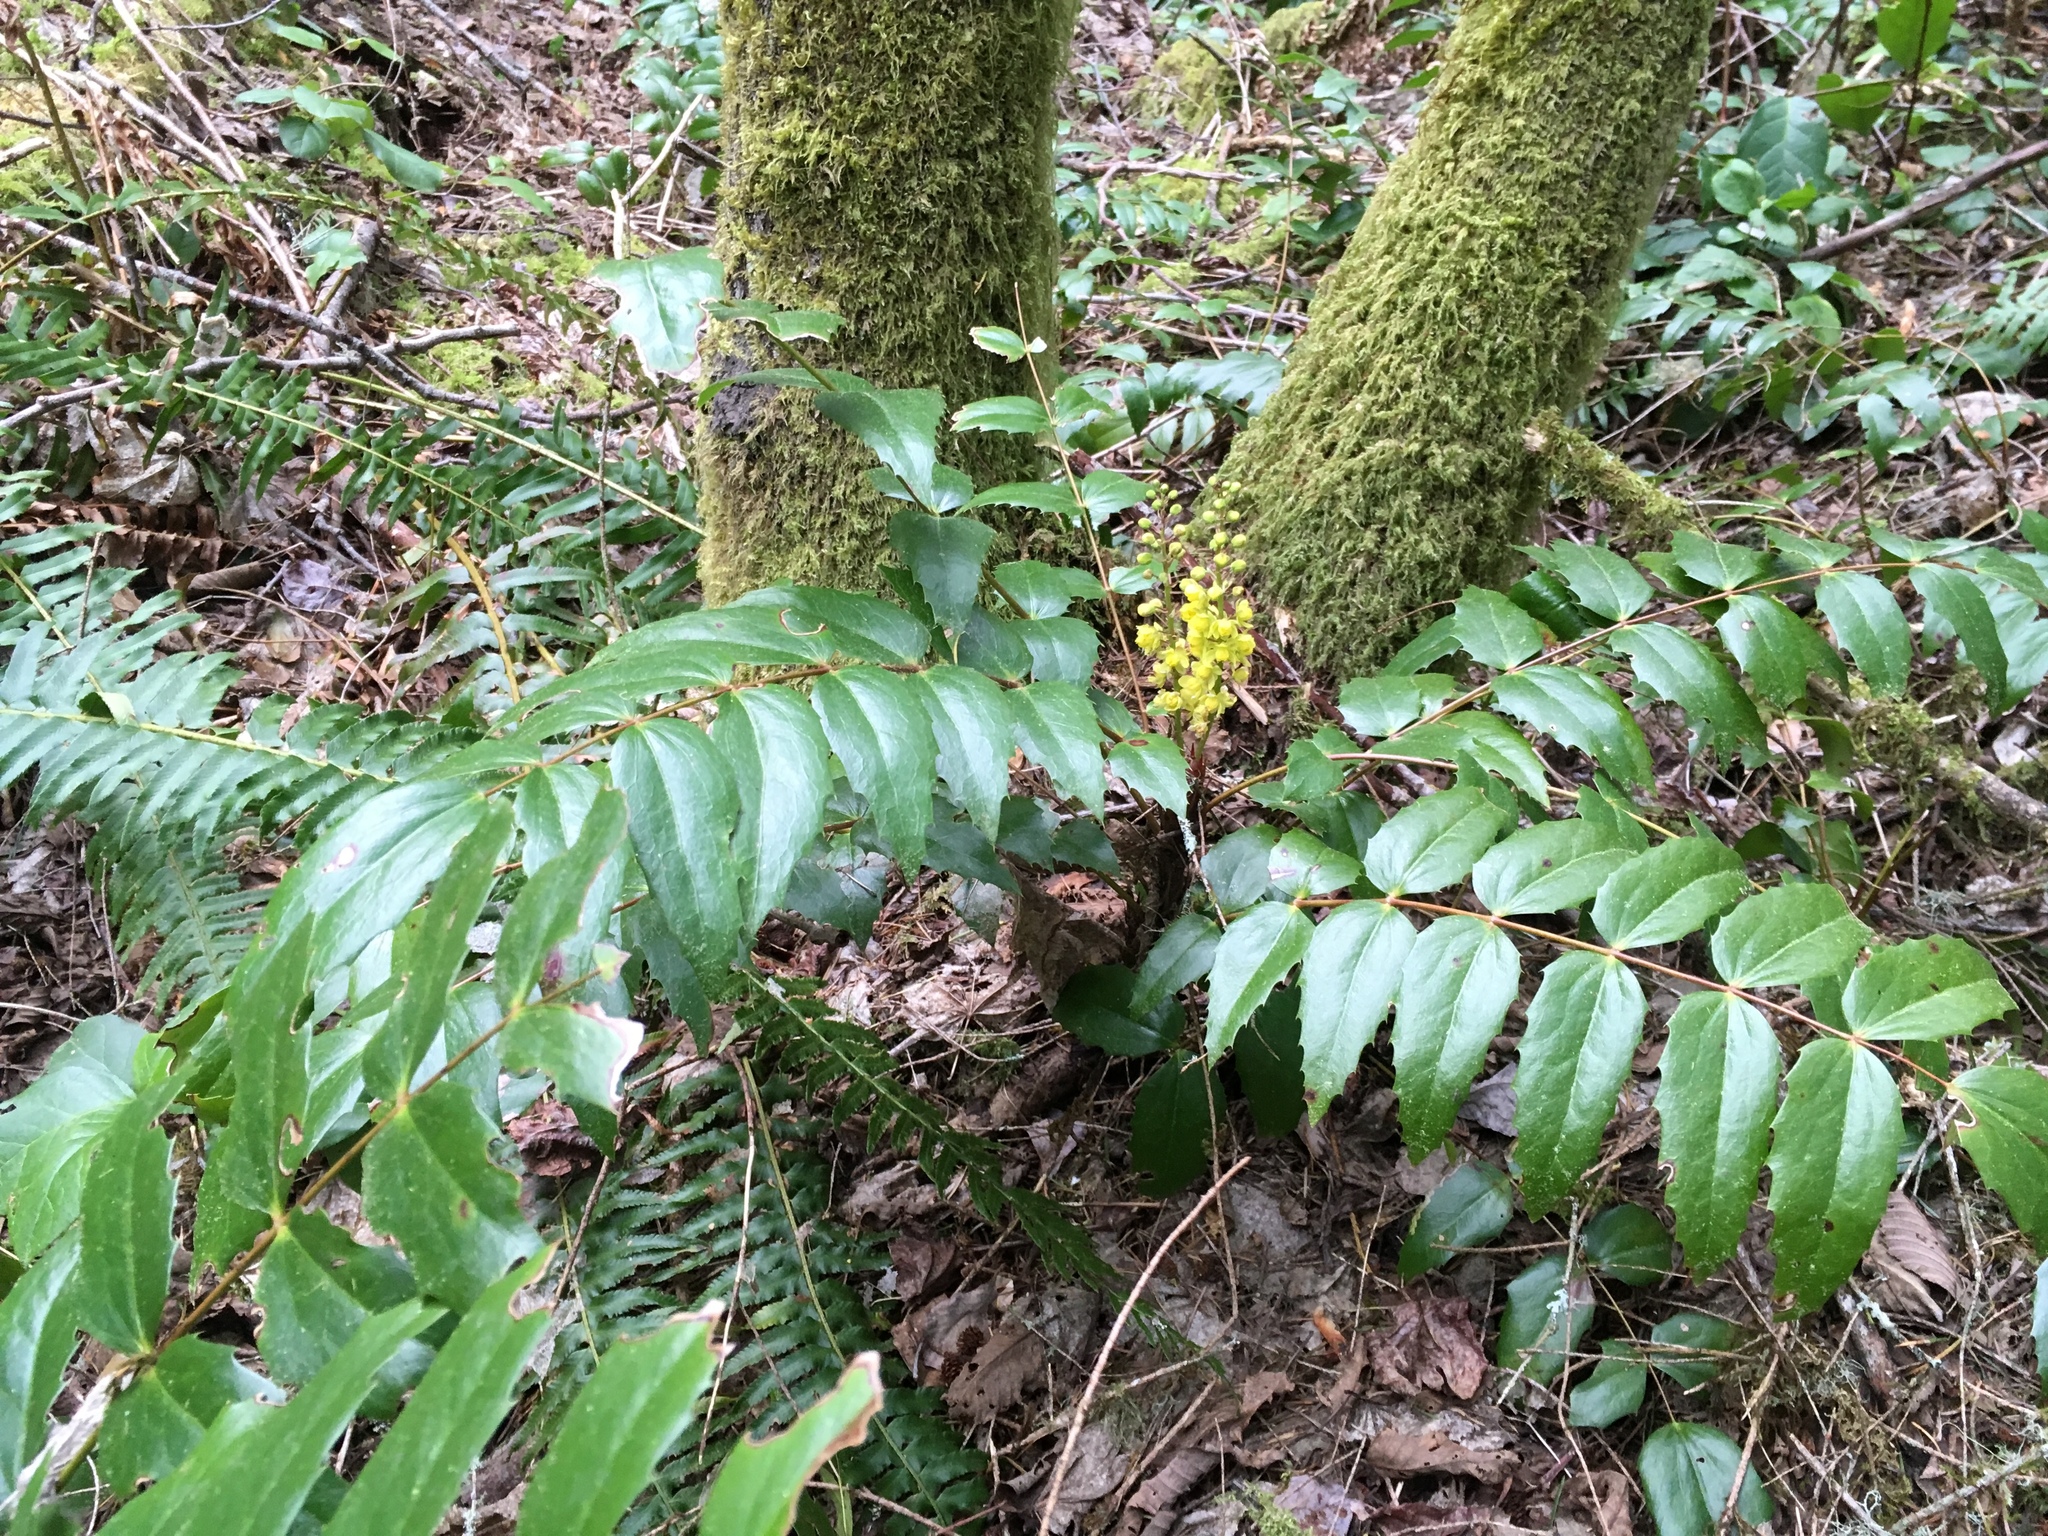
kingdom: Plantae
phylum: Tracheophyta
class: Magnoliopsida
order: Ranunculales
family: Berberidaceae
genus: Mahonia
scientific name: Mahonia nervosa
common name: Cascade oregon-grape
